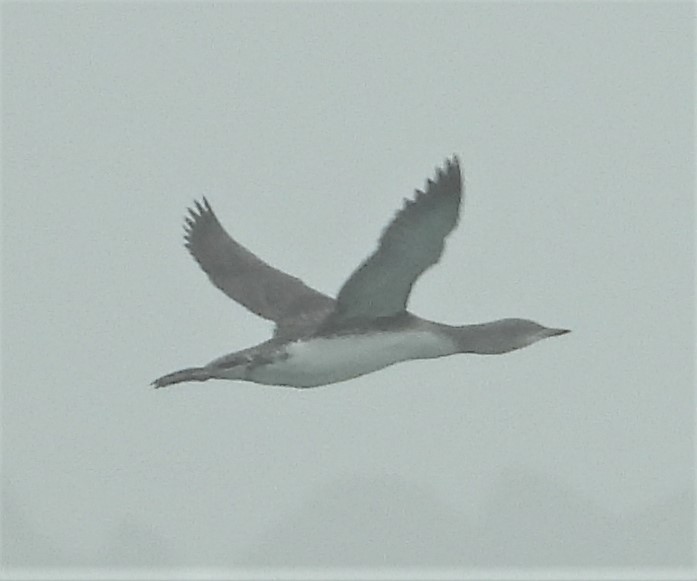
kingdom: Animalia
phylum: Chordata
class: Aves
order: Gaviiformes
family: Gaviidae
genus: Gavia
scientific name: Gavia pacifica
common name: Pacific loon
